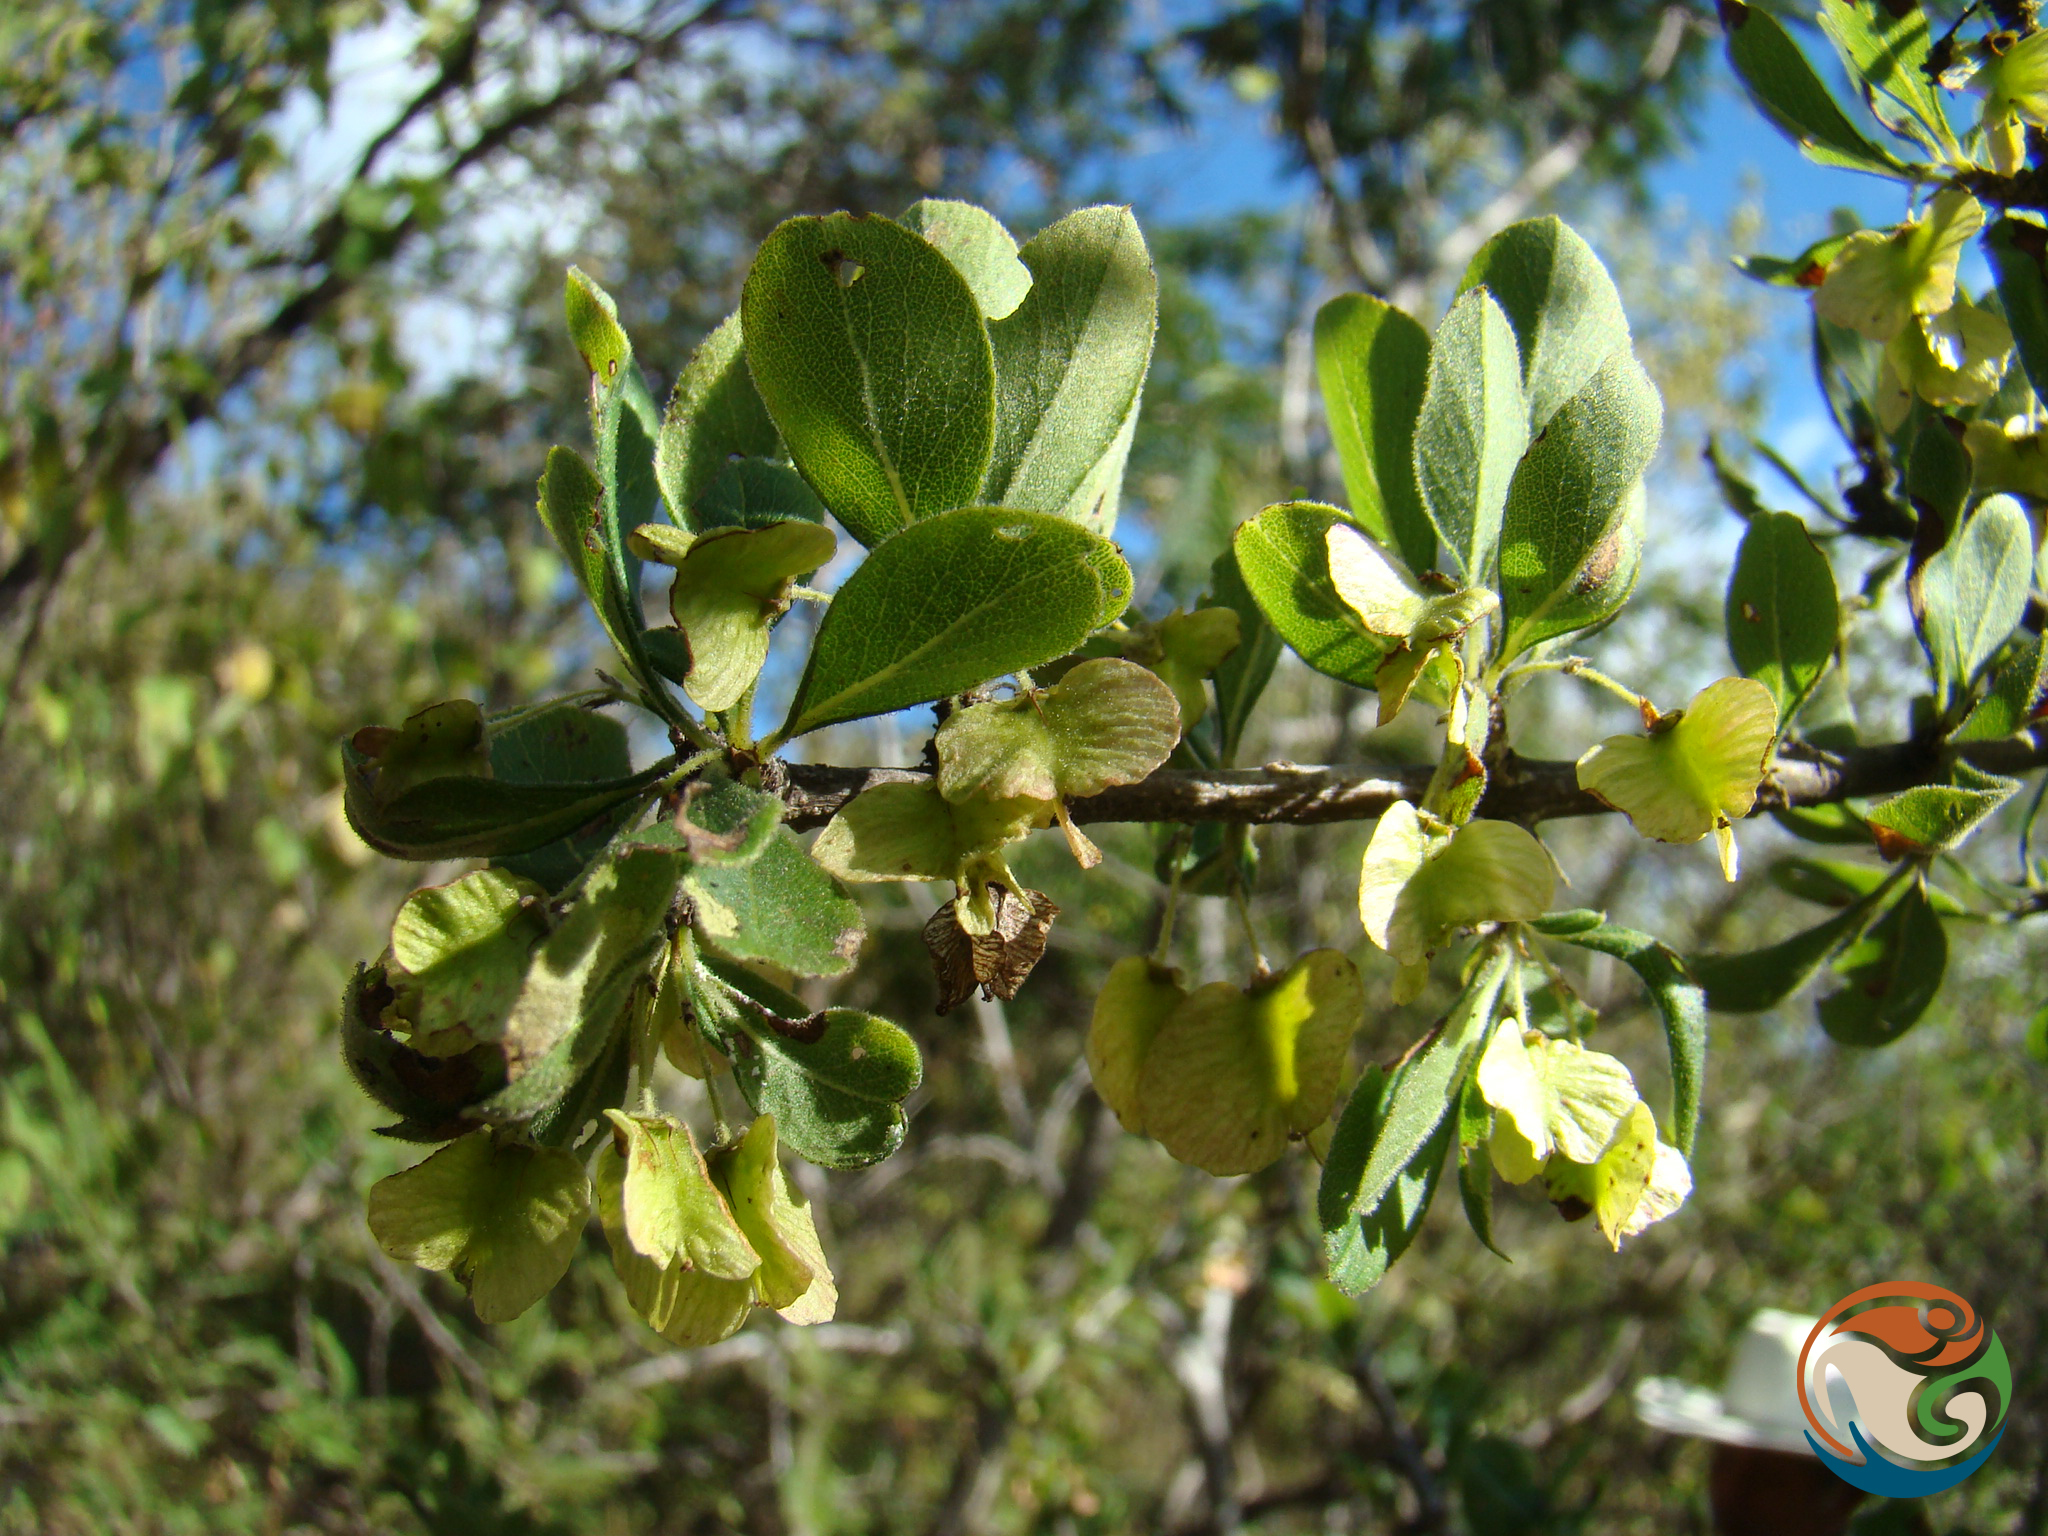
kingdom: Plantae
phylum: Tracheophyta
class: Magnoliopsida
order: Celastrales
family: Celastraceae
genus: Wimmeria
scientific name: Wimmeria microphylla
